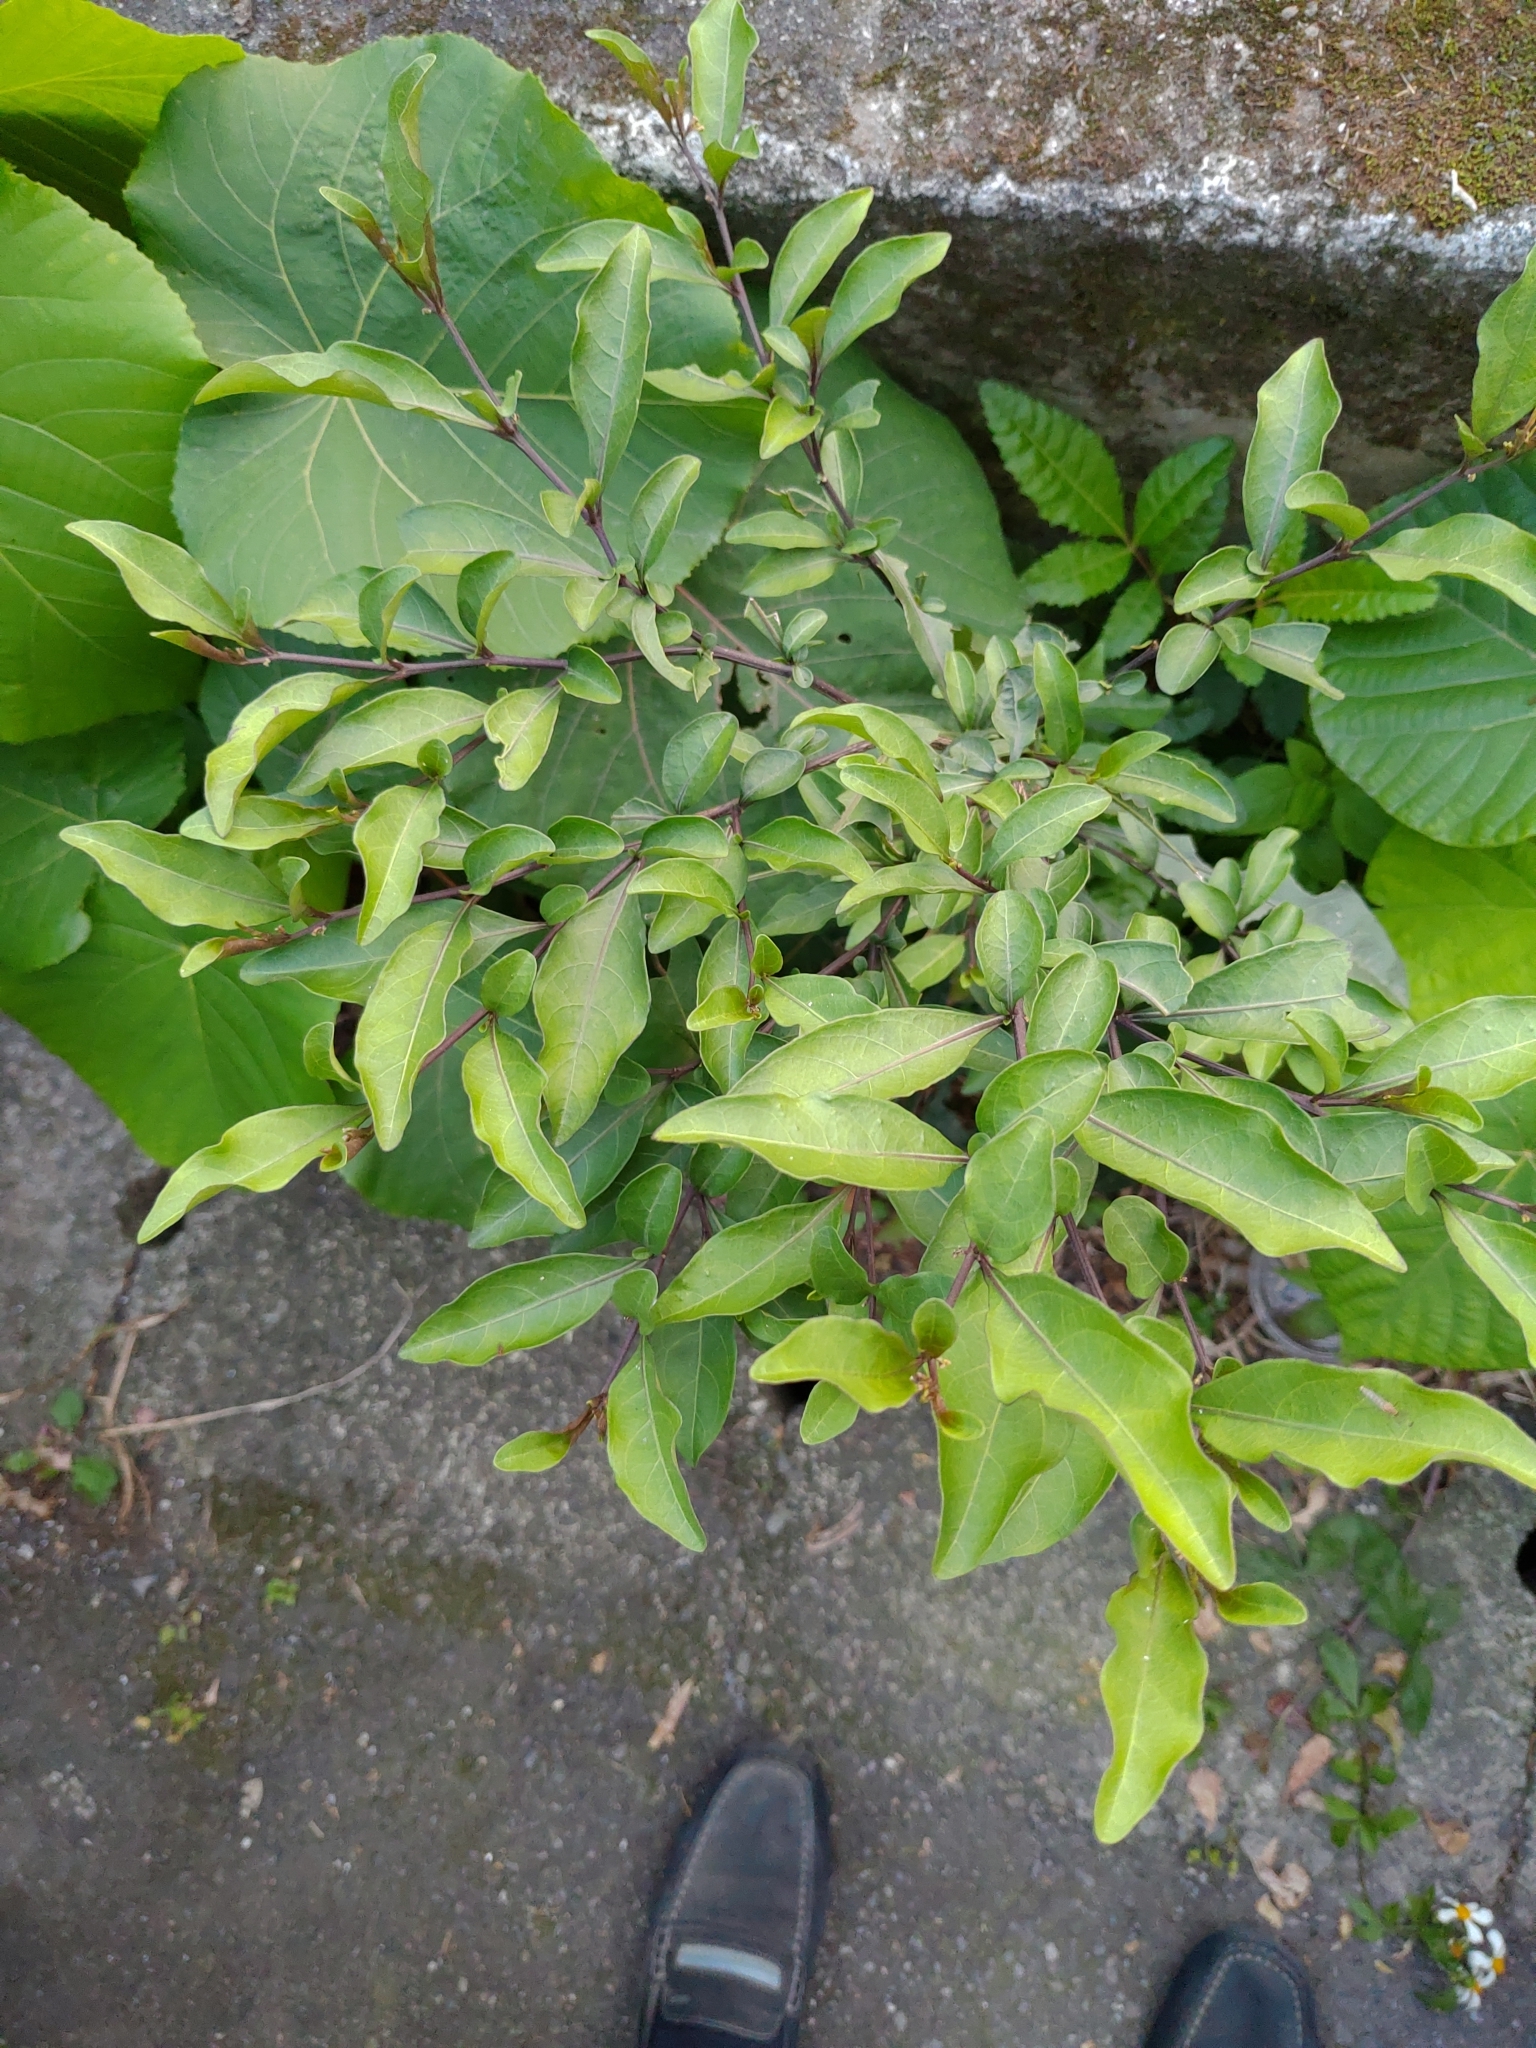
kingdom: Plantae
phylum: Tracheophyta
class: Magnoliopsida
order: Solanales
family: Solanaceae
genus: Solanum
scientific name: Solanum diphyllum
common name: Twoleaf nightshade
